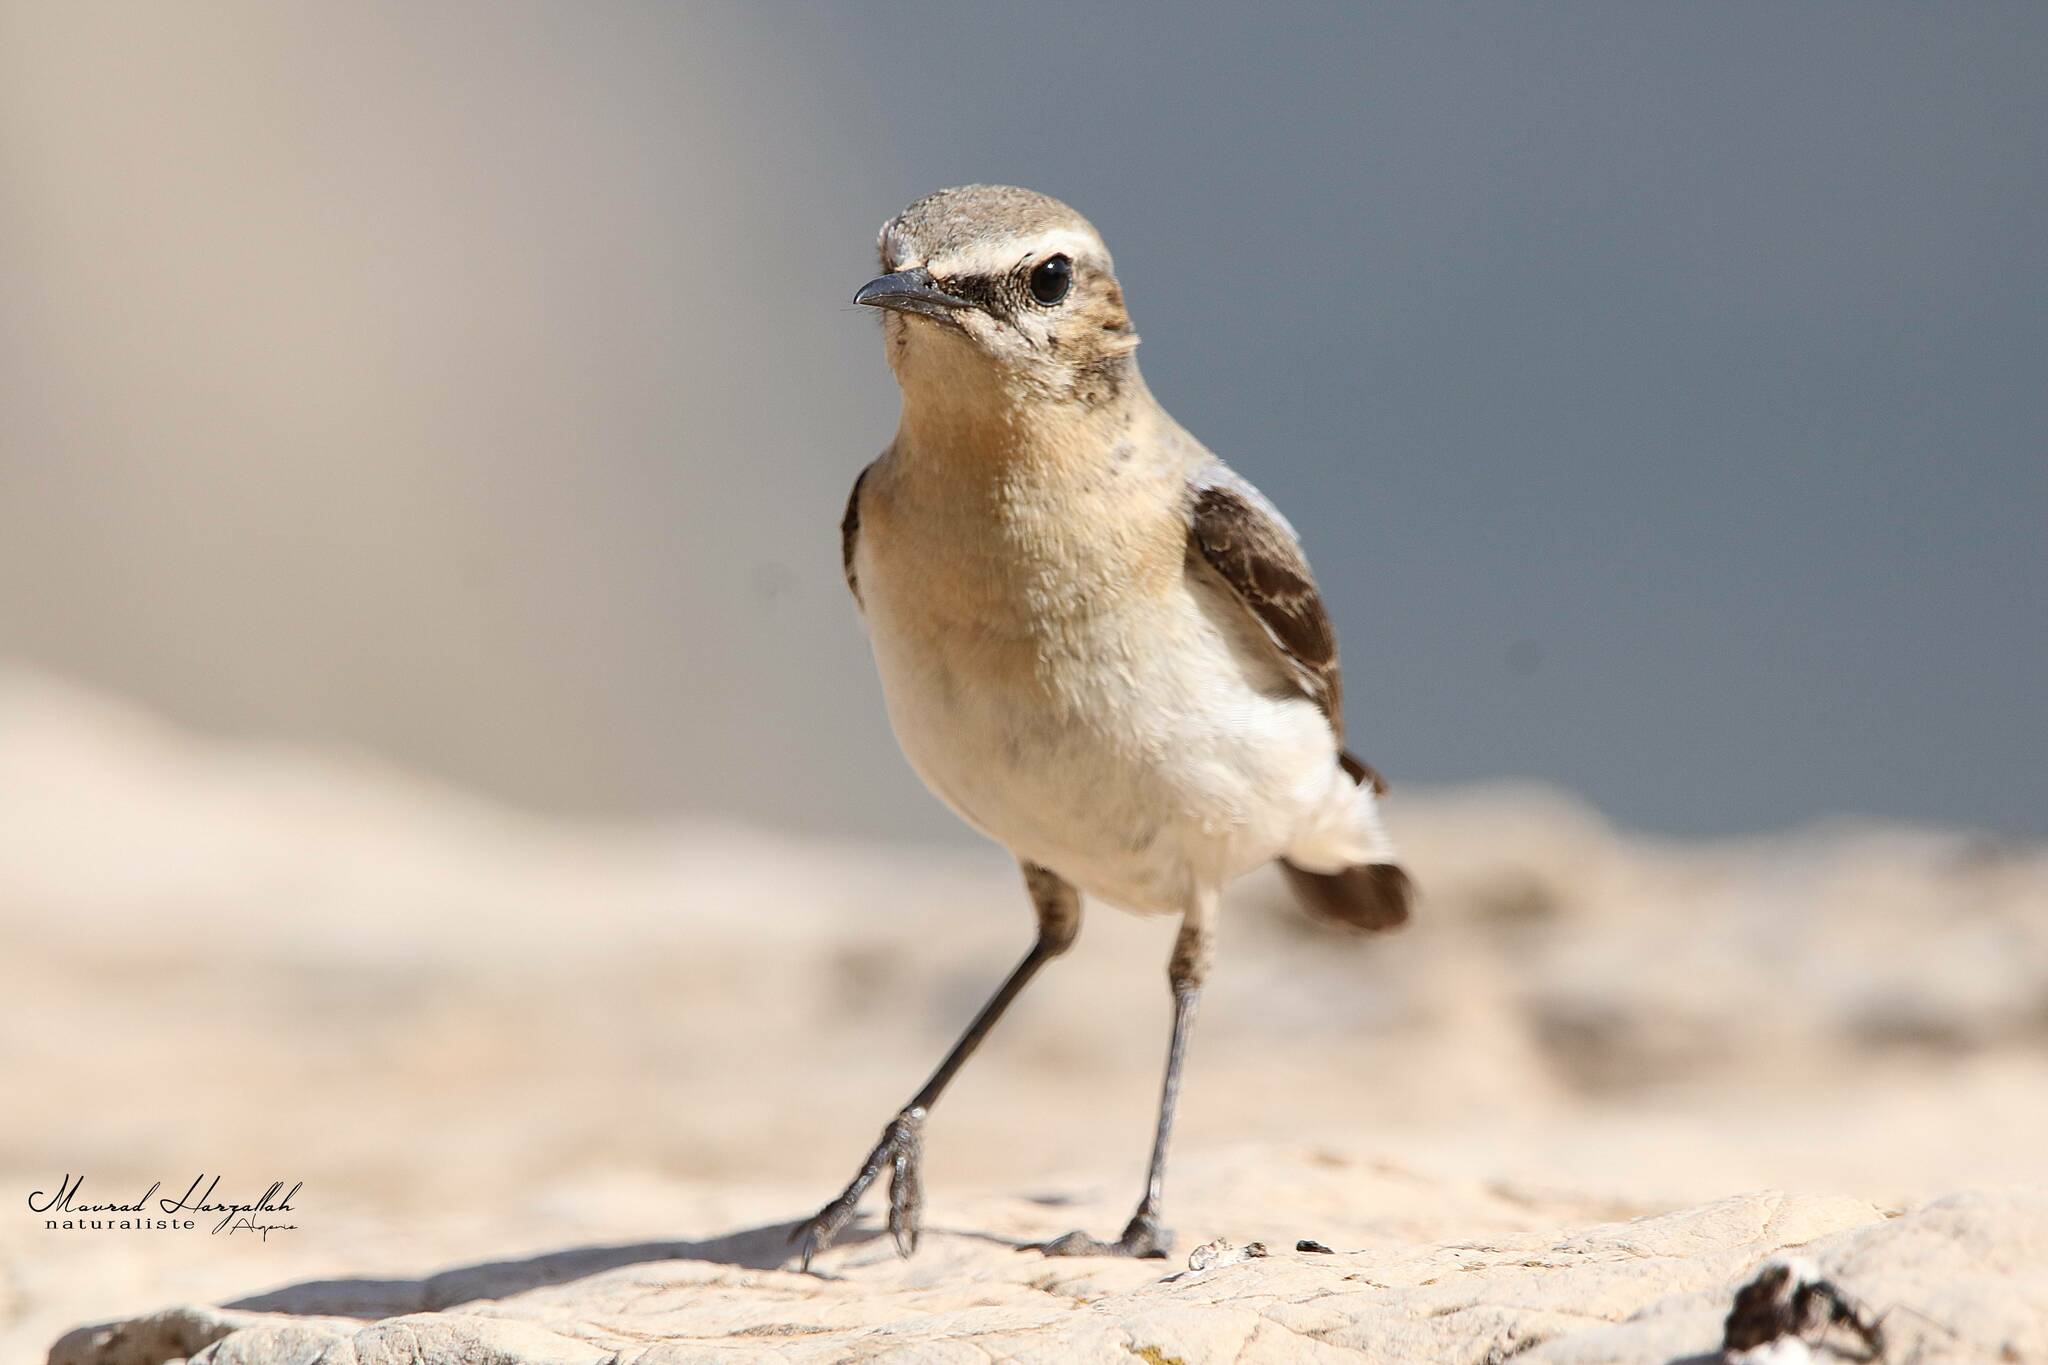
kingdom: Animalia
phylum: Chordata
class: Aves
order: Passeriformes
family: Muscicapidae
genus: Oenanthe
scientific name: Oenanthe oenanthe
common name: Northern wheatear
